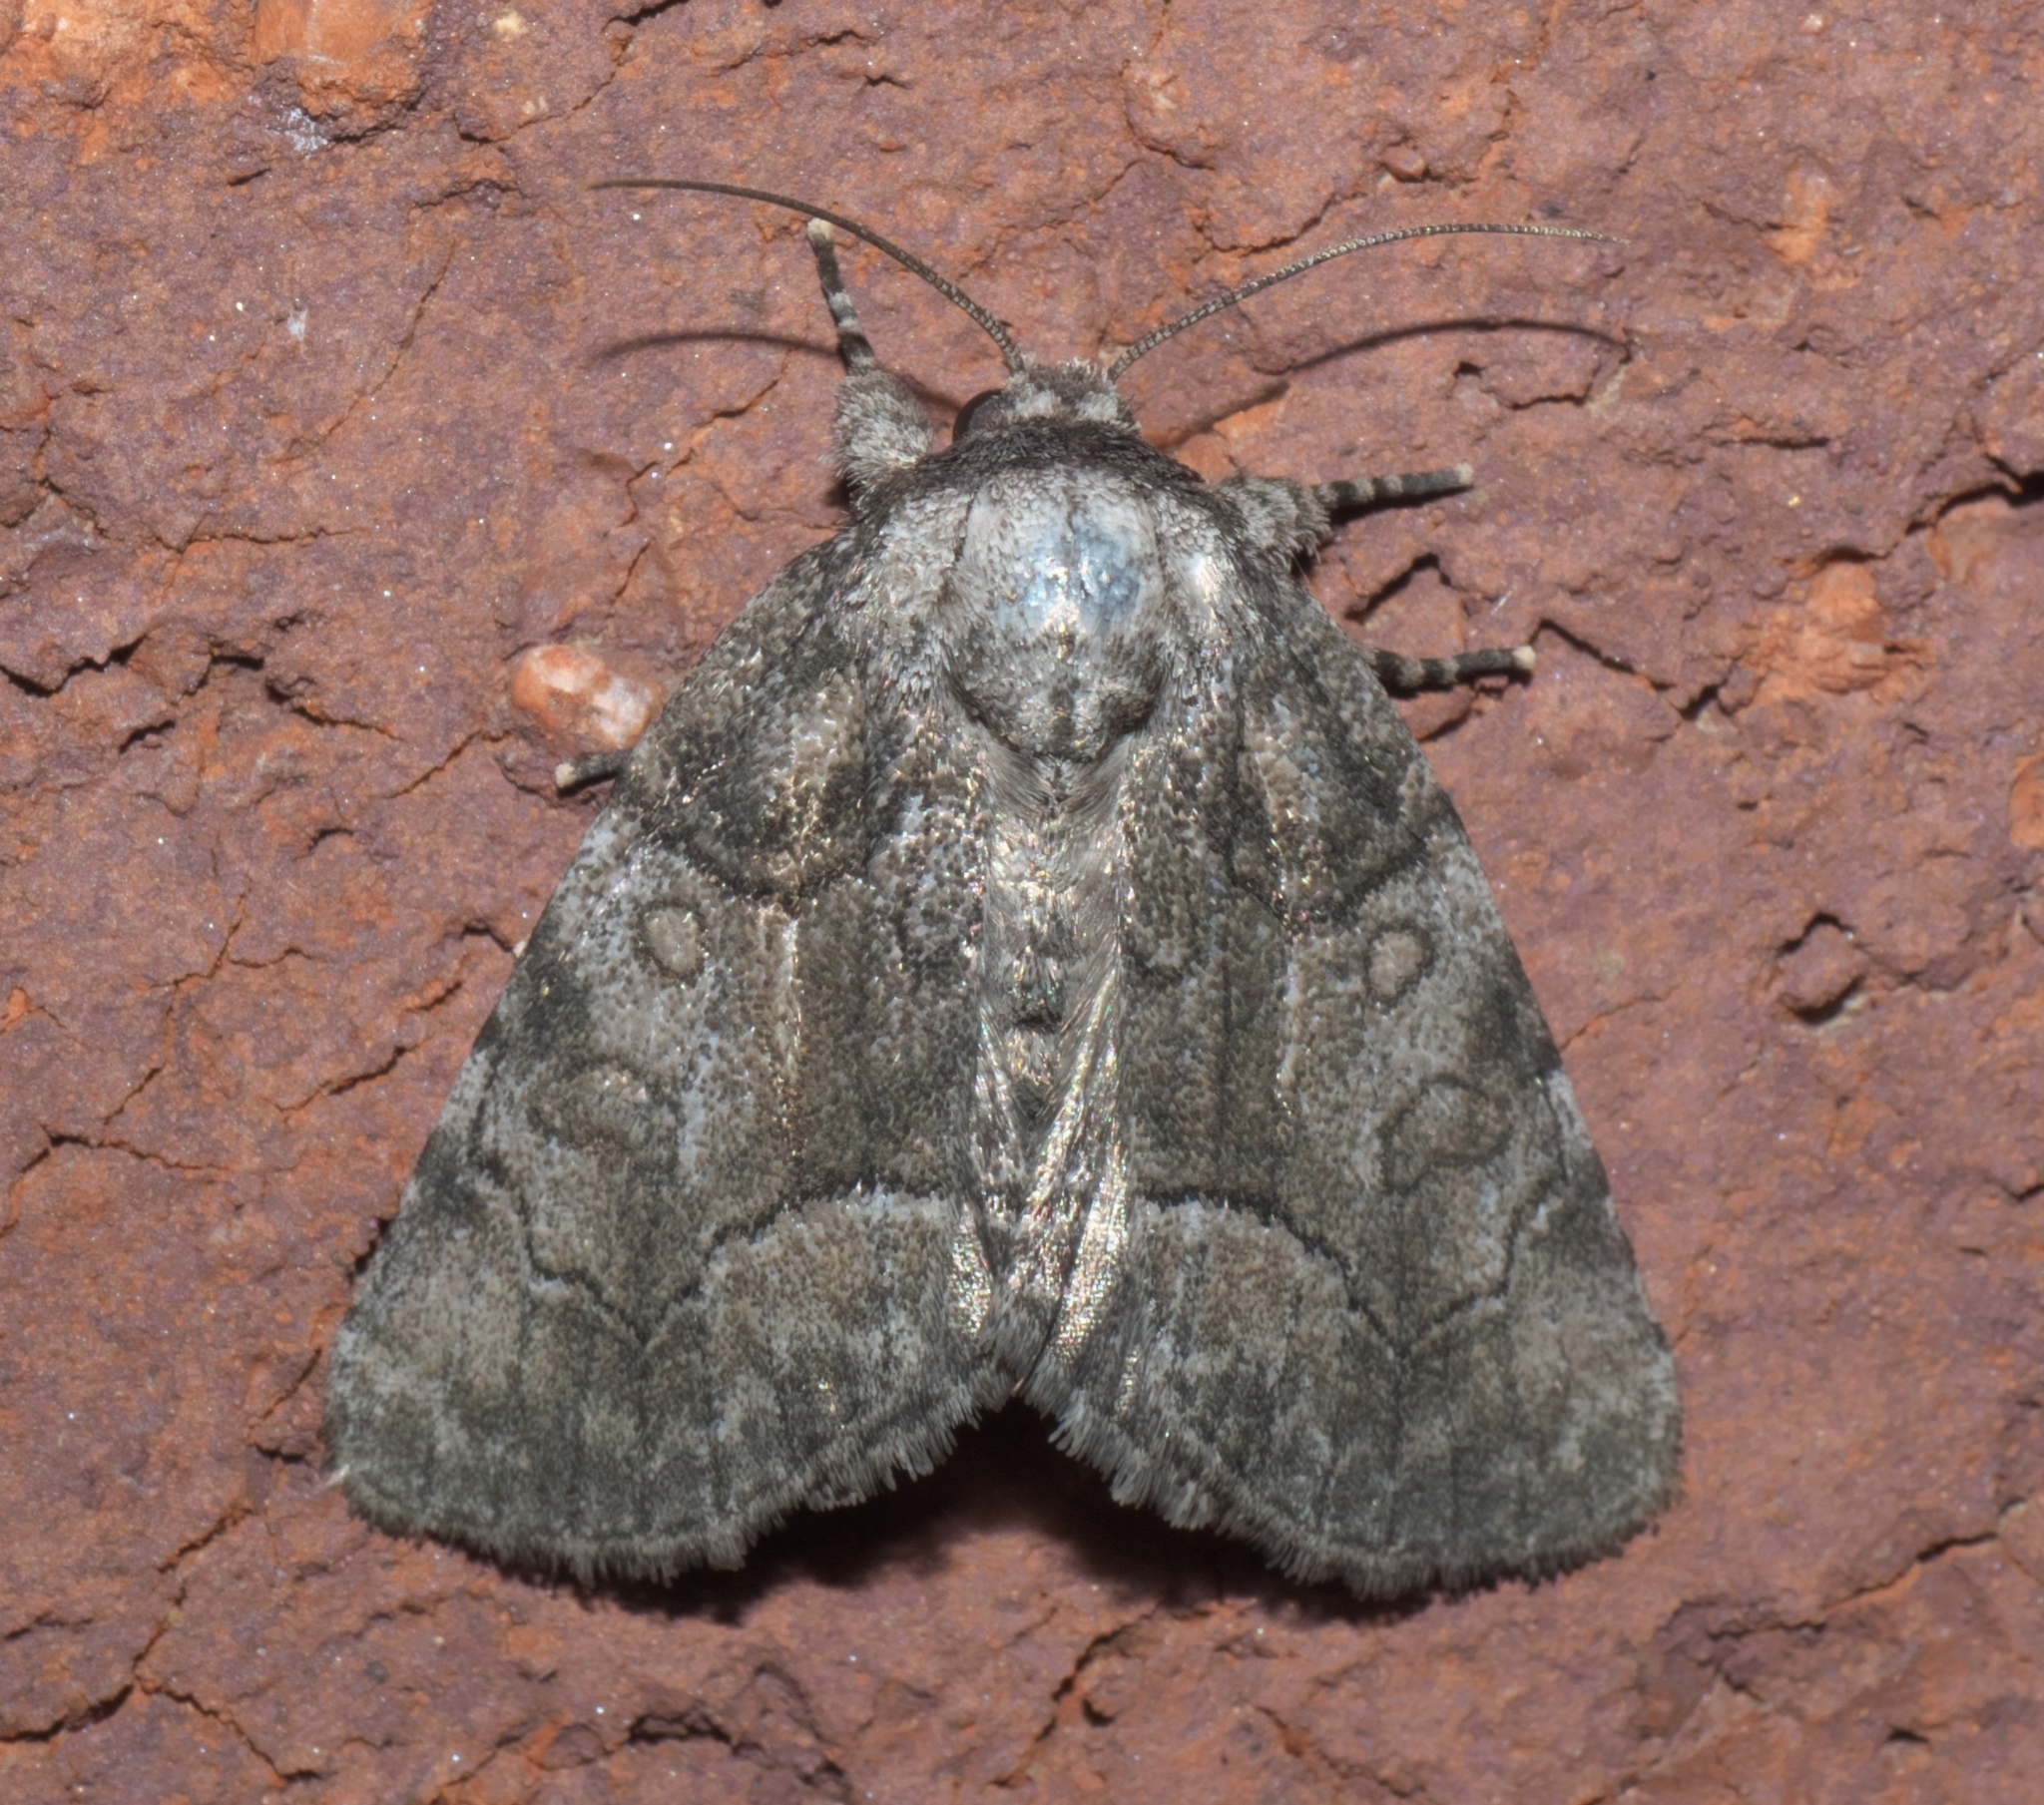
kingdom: Animalia
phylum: Arthropoda
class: Insecta
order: Lepidoptera
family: Noctuidae
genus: Raphia
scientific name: Raphia frater
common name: Brother
